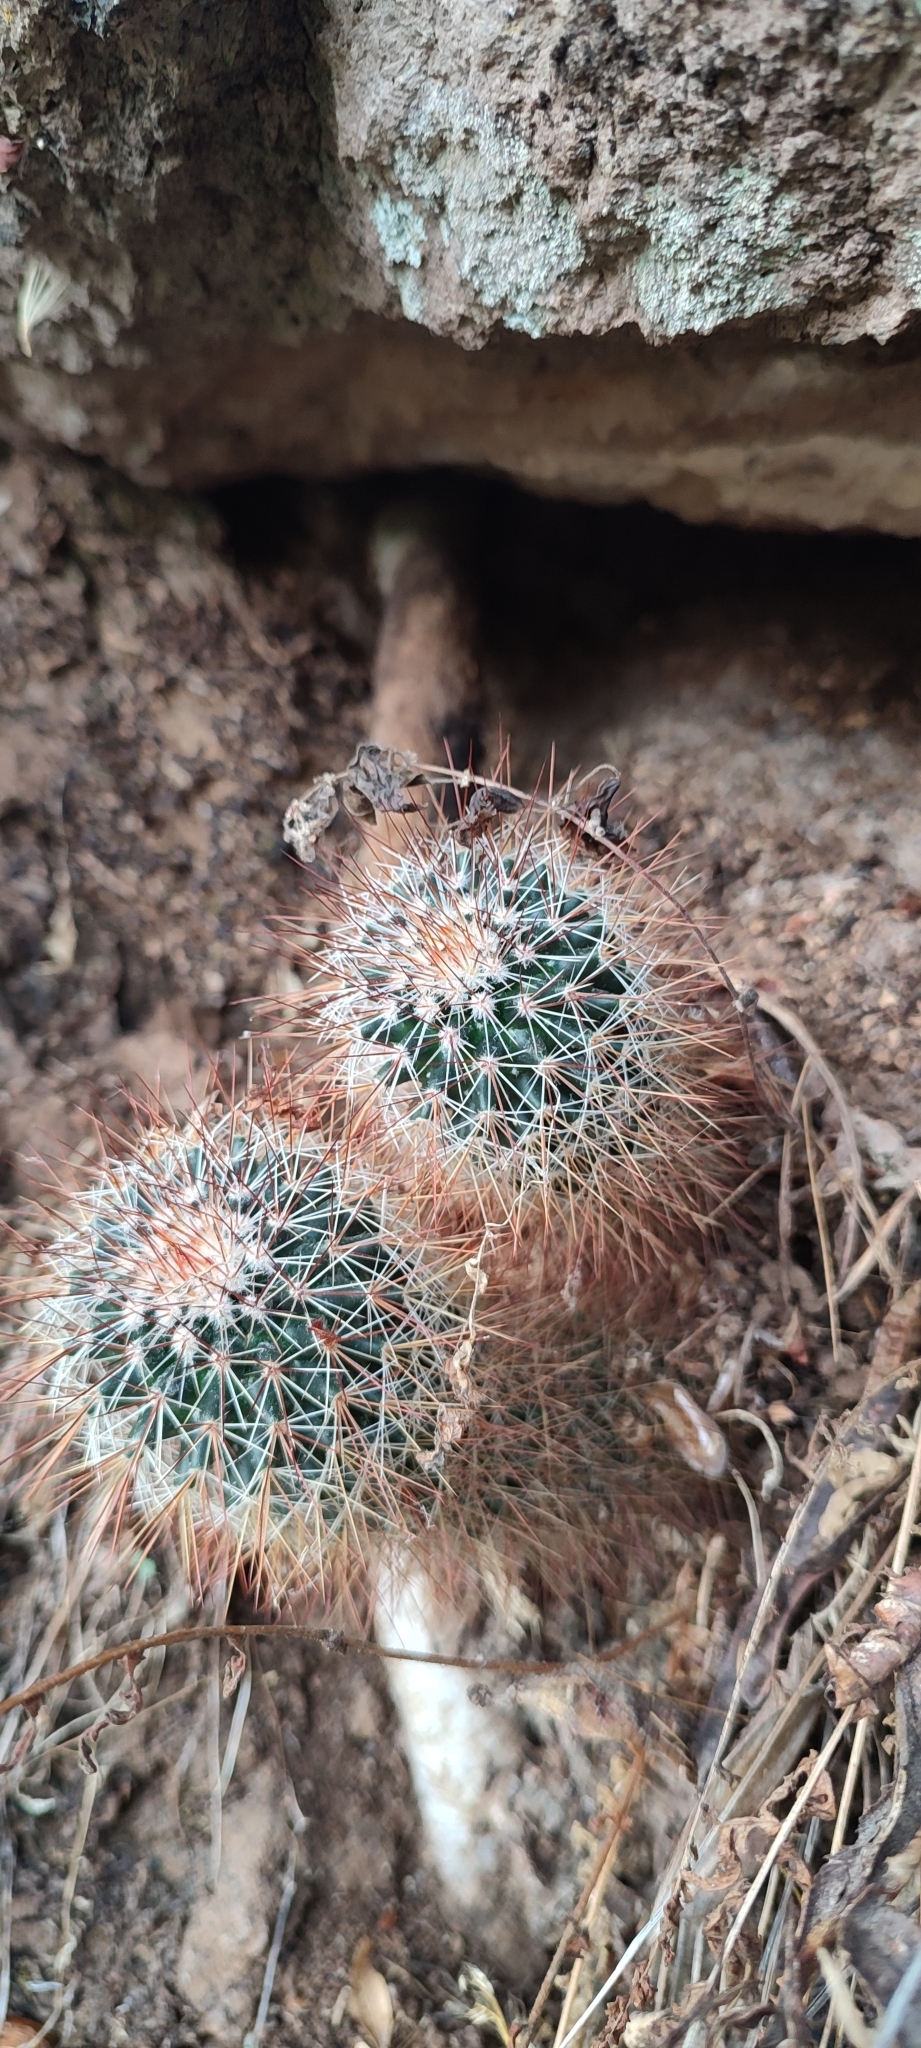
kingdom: Plantae
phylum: Tracheophyta
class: Magnoliopsida
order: Caryophyllales
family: Cactaceae
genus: Mammillaria
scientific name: Mammillaria duoformis
